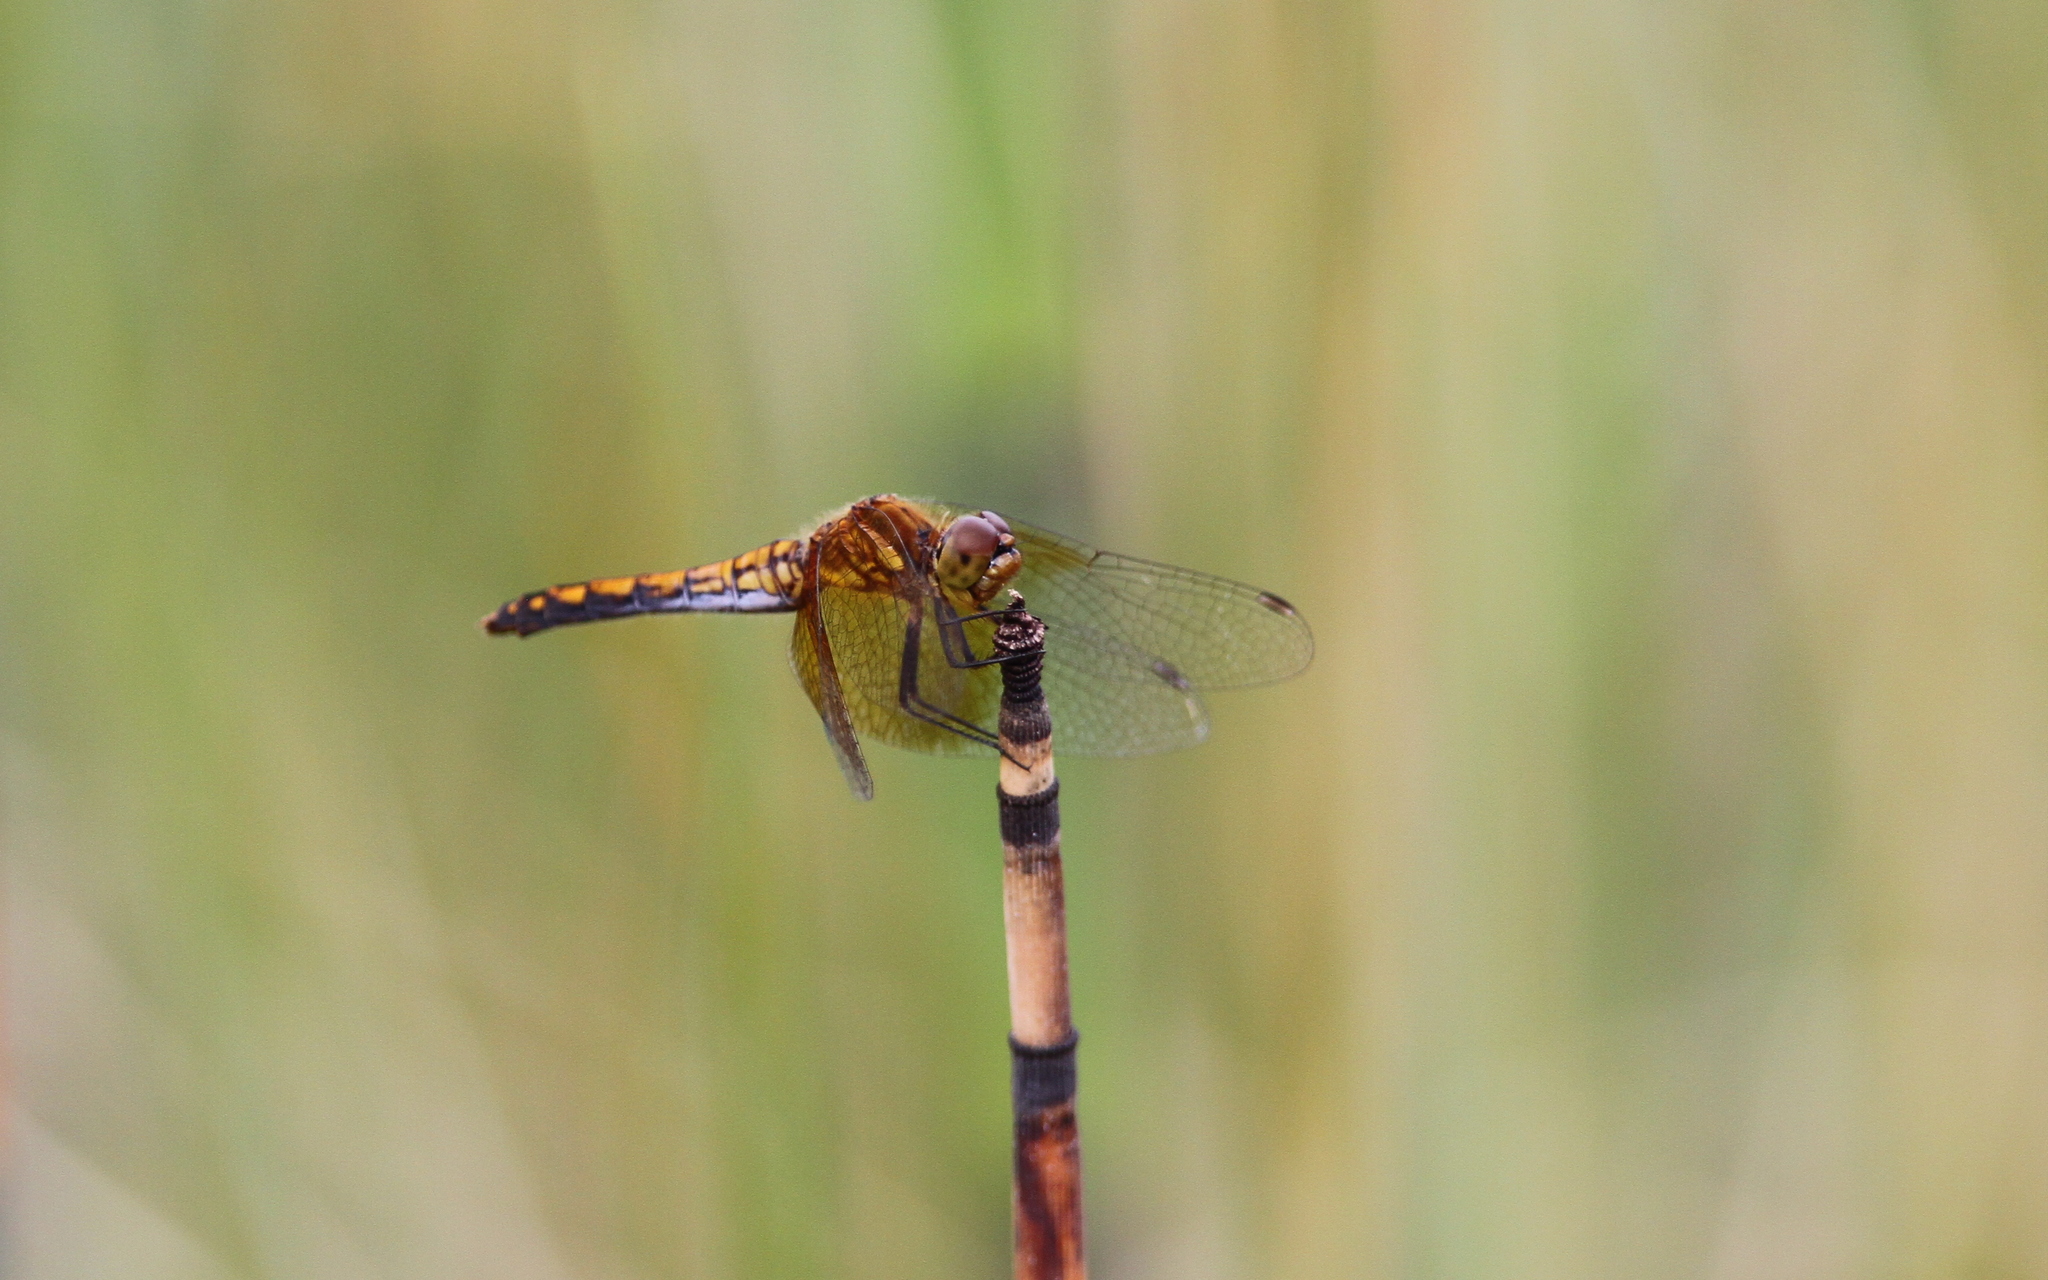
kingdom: Animalia
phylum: Arthropoda
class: Insecta
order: Odonata
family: Libellulidae
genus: Sympetrum
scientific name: Sympetrum semicinctum
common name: Band-winged meadowhawk
